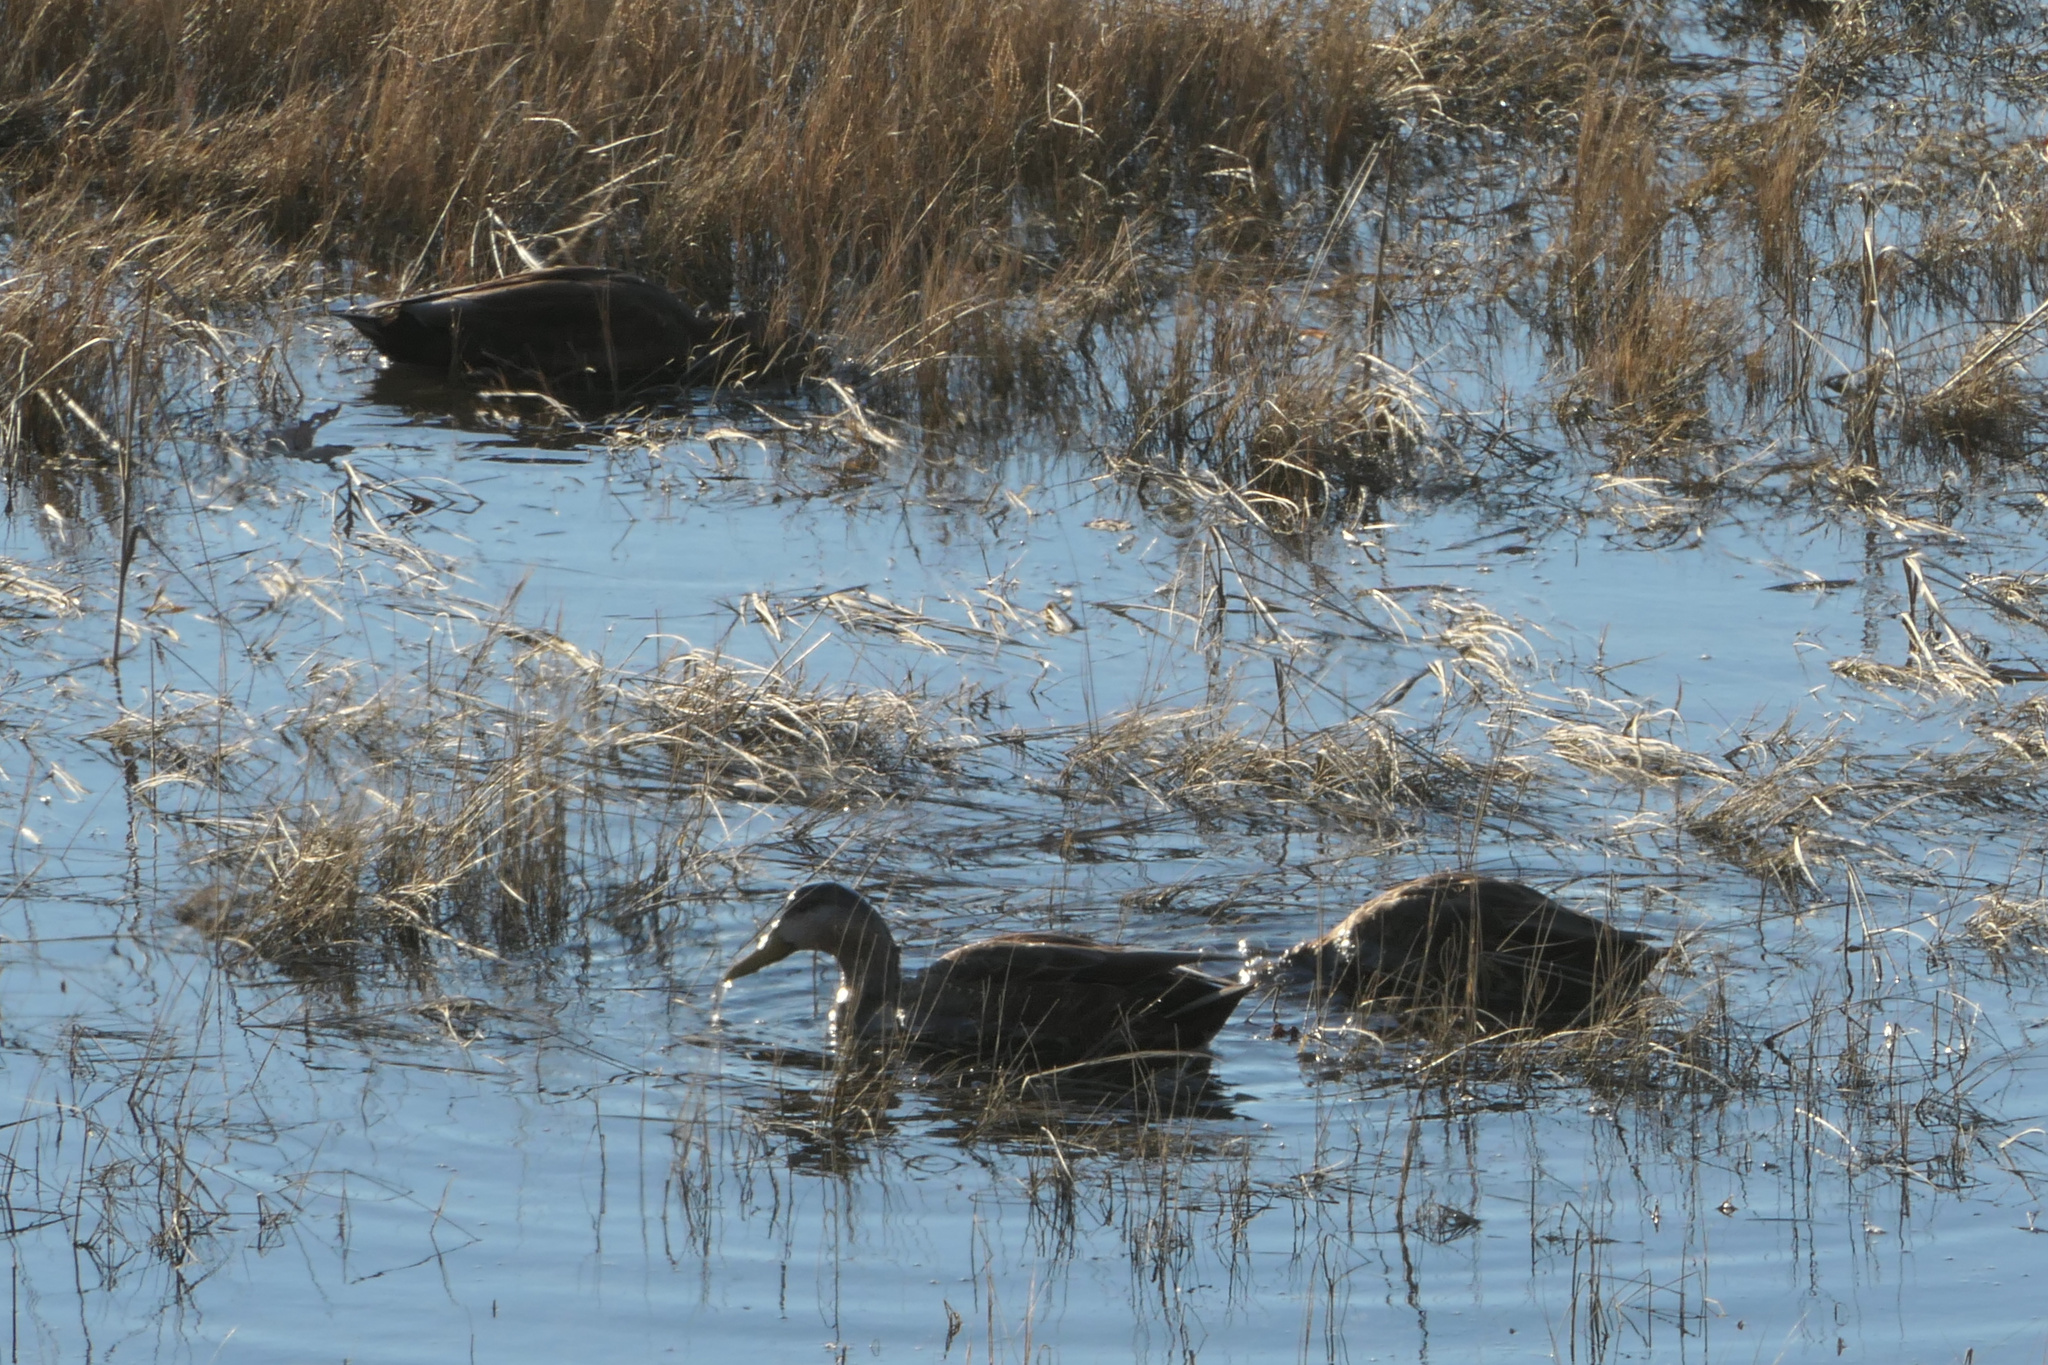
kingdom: Animalia
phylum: Chordata
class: Aves
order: Anseriformes
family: Anatidae
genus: Anas
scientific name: Anas rubripes
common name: American black duck
